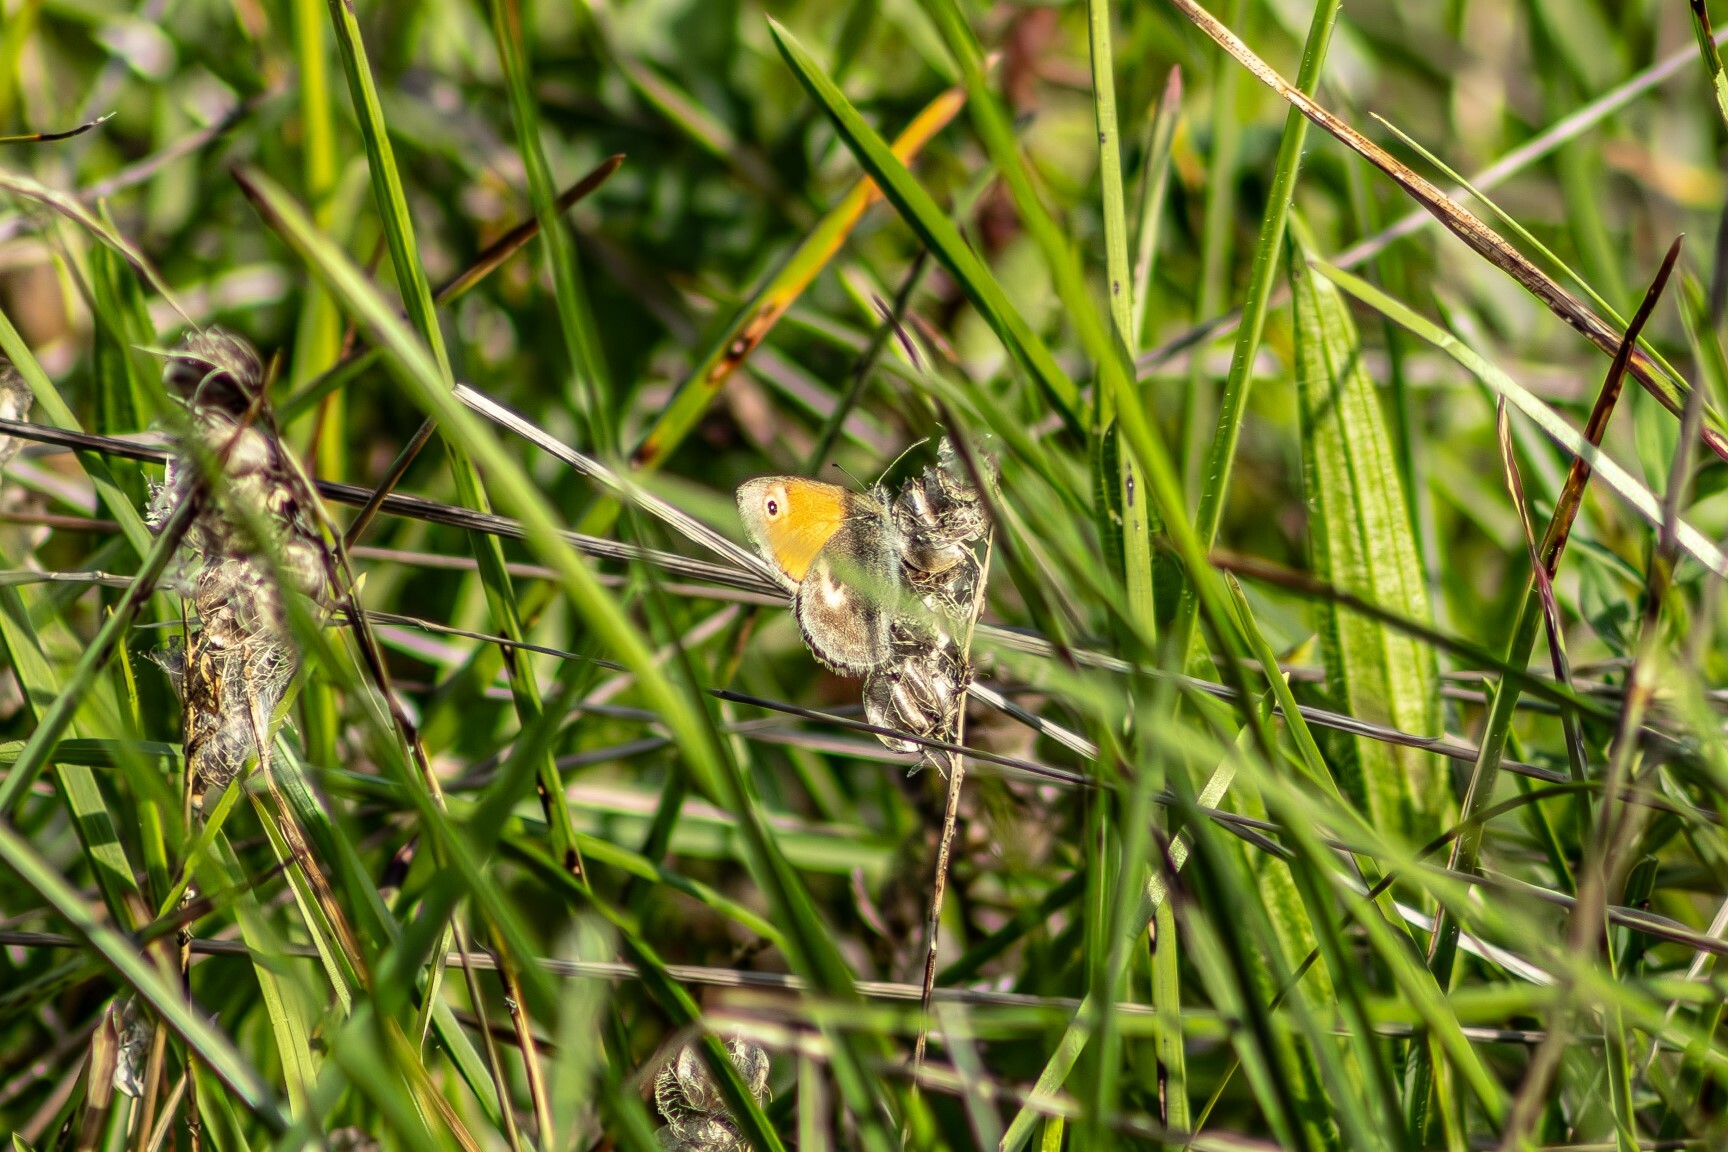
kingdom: Animalia
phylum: Arthropoda
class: Insecta
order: Lepidoptera
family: Nymphalidae
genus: Coenonympha
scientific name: Coenonympha pamphilus
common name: Small heath
